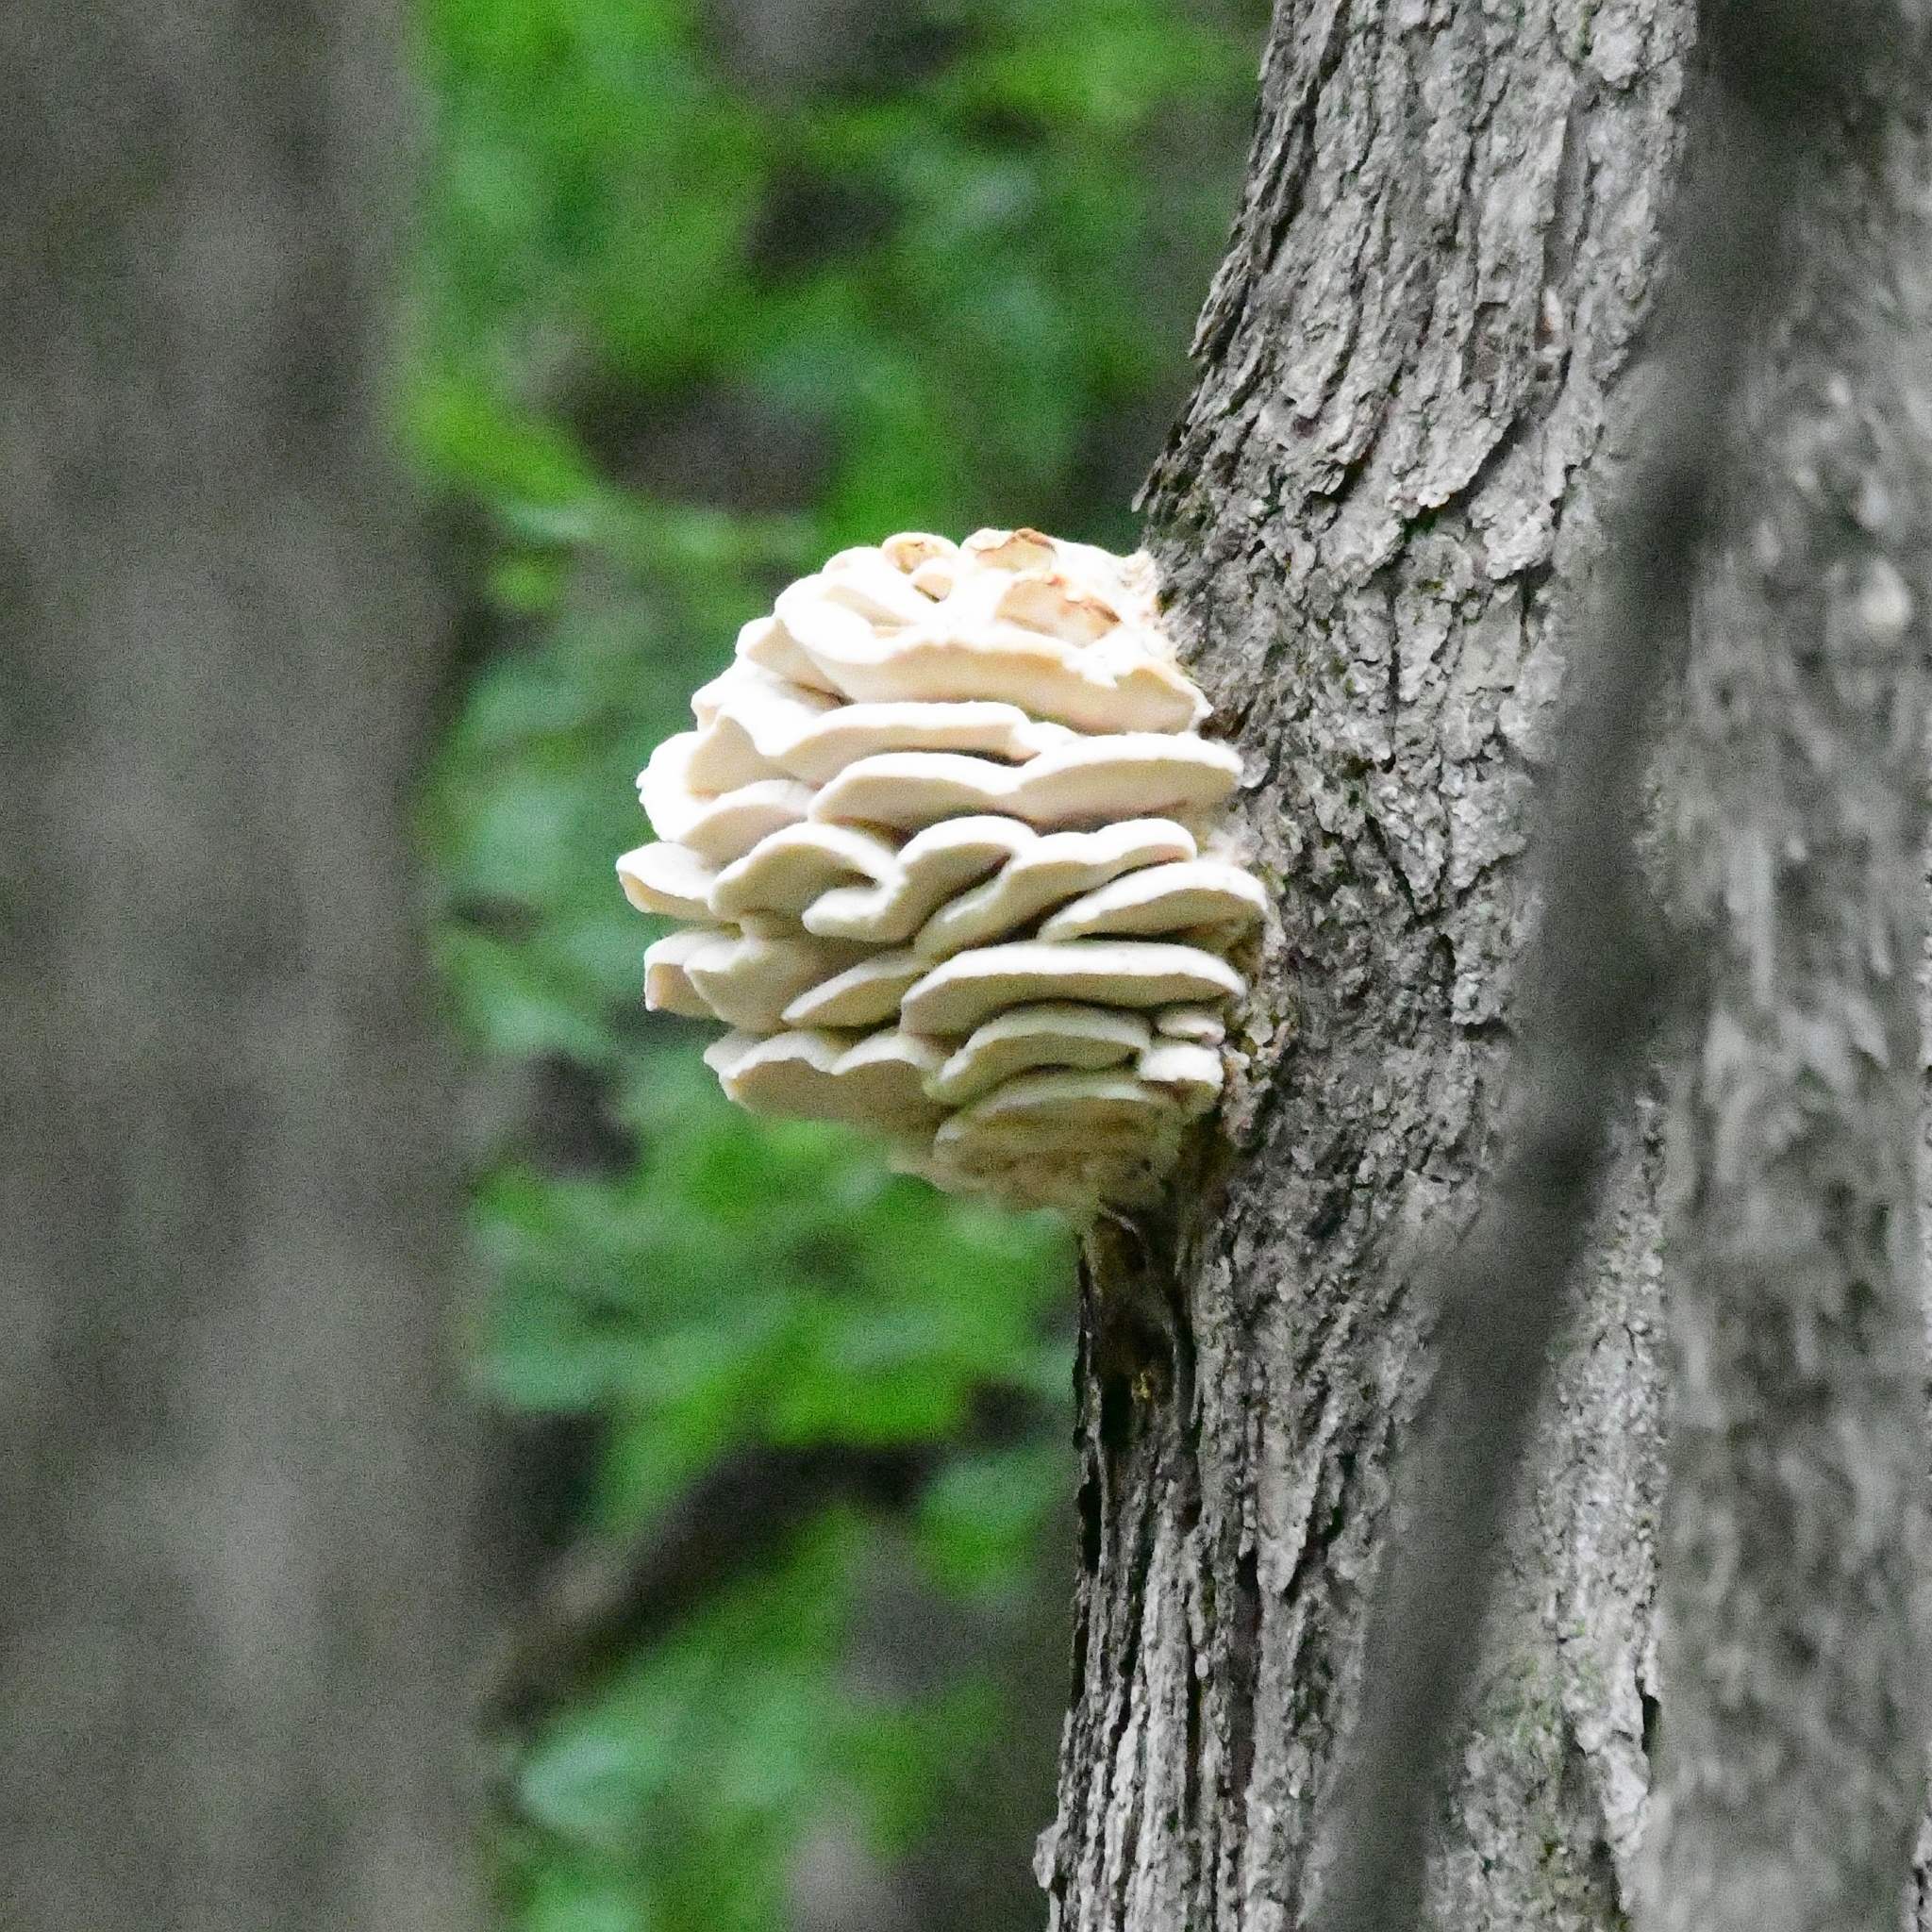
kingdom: Fungi
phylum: Basidiomycota
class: Agaricomycetes
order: Polyporales
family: Meruliaceae
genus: Climacodon
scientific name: Climacodon septentrionalis
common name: Northern tooth
